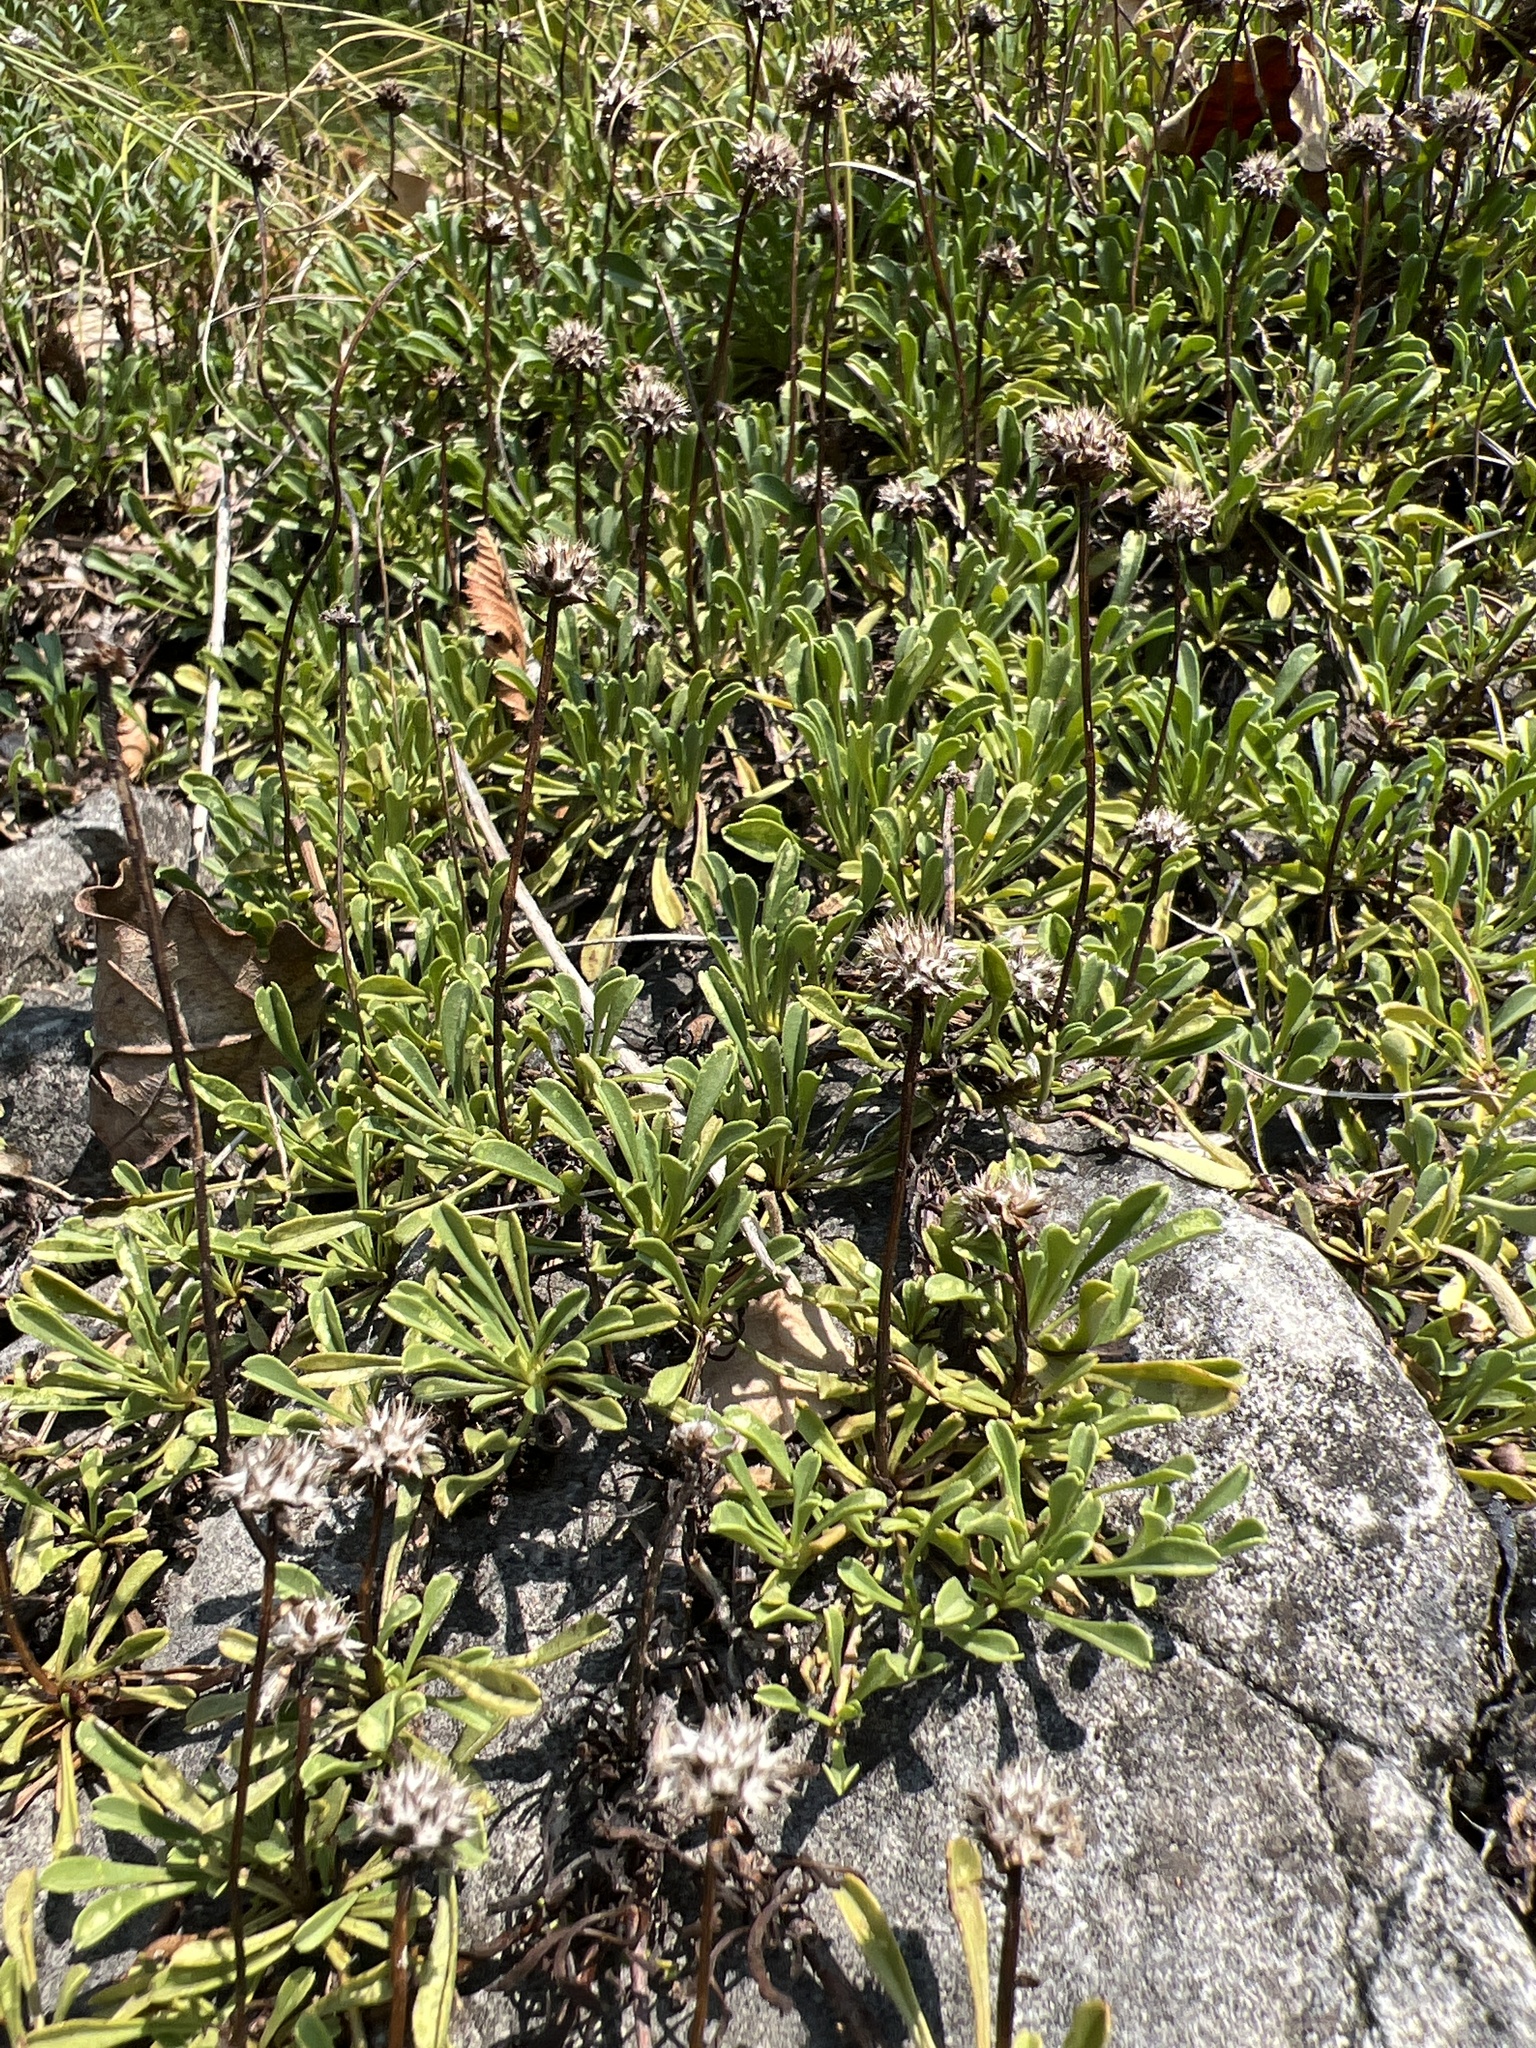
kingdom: Plantae
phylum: Tracheophyta
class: Magnoliopsida
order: Lamiales
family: Plantaginaceae
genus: Globularia
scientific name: Globularia cordifolia
